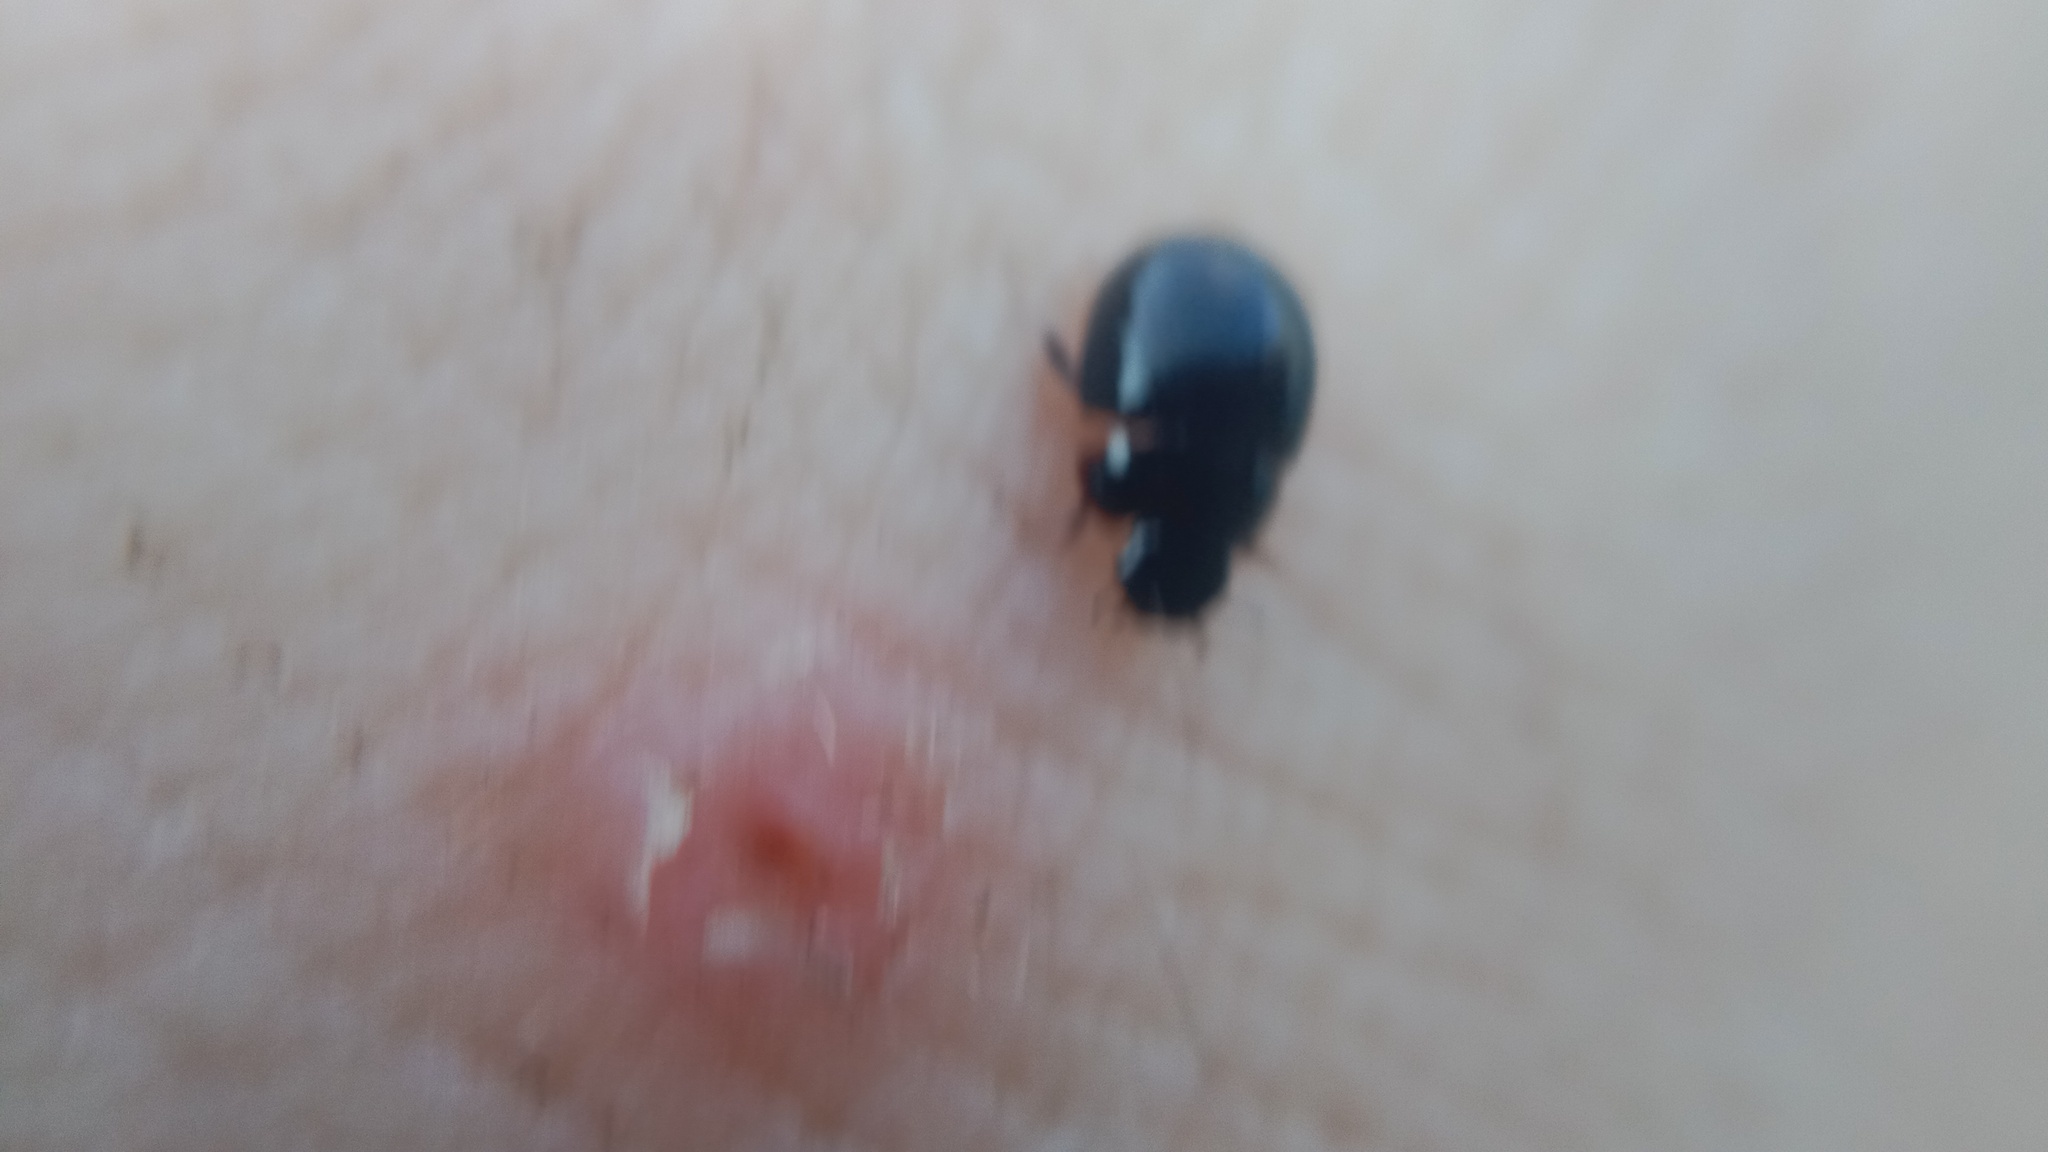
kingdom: Animalia
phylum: Arthropoda
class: Insecta
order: Coleoptera
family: Hydrophilidae
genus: Coelostoma
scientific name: Coelostoma orbiculare
